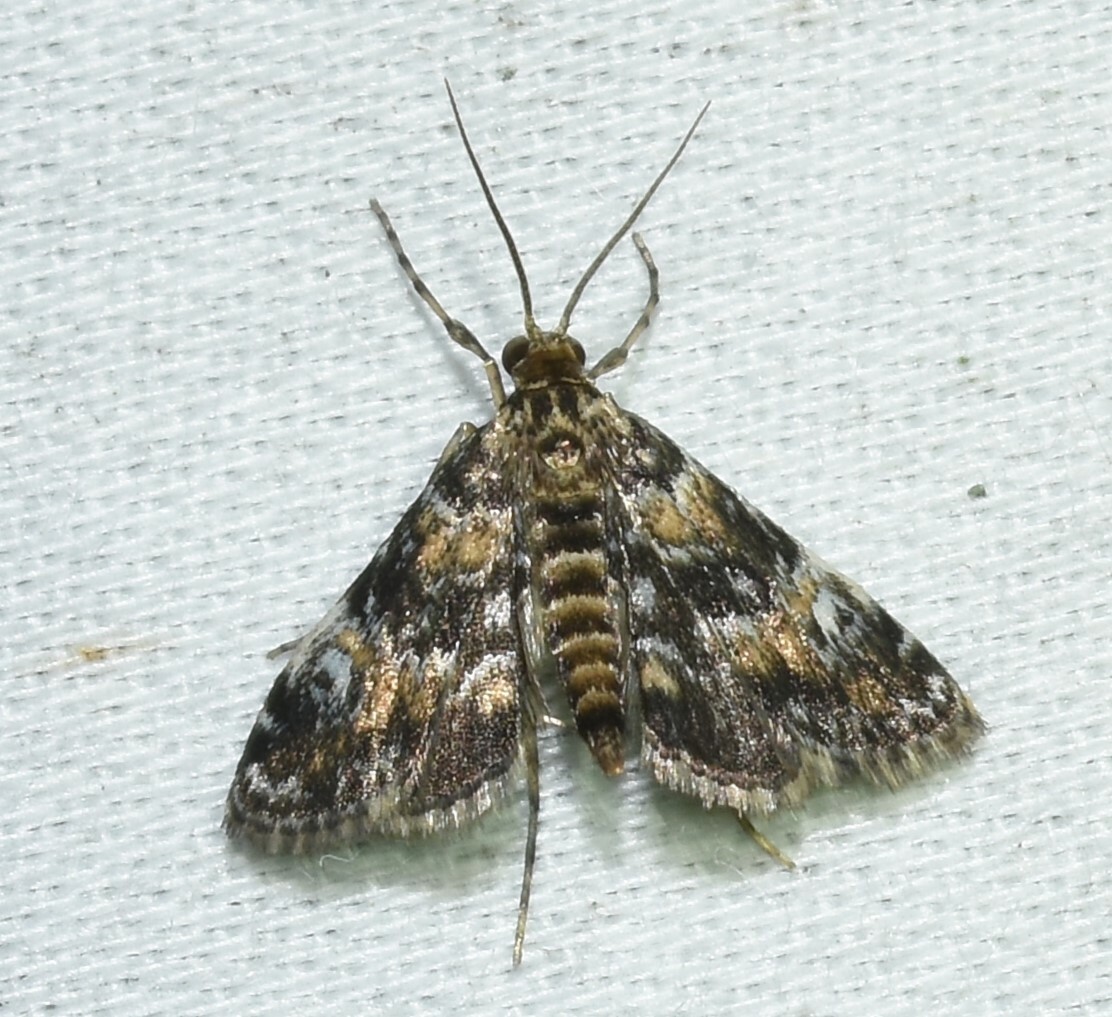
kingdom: Animalia
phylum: Arthropoda
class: Insecta
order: Lepidoptera
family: Crambidae
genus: Elophila
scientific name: Elophila obliteralis
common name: Waterlily leafcutter moth
